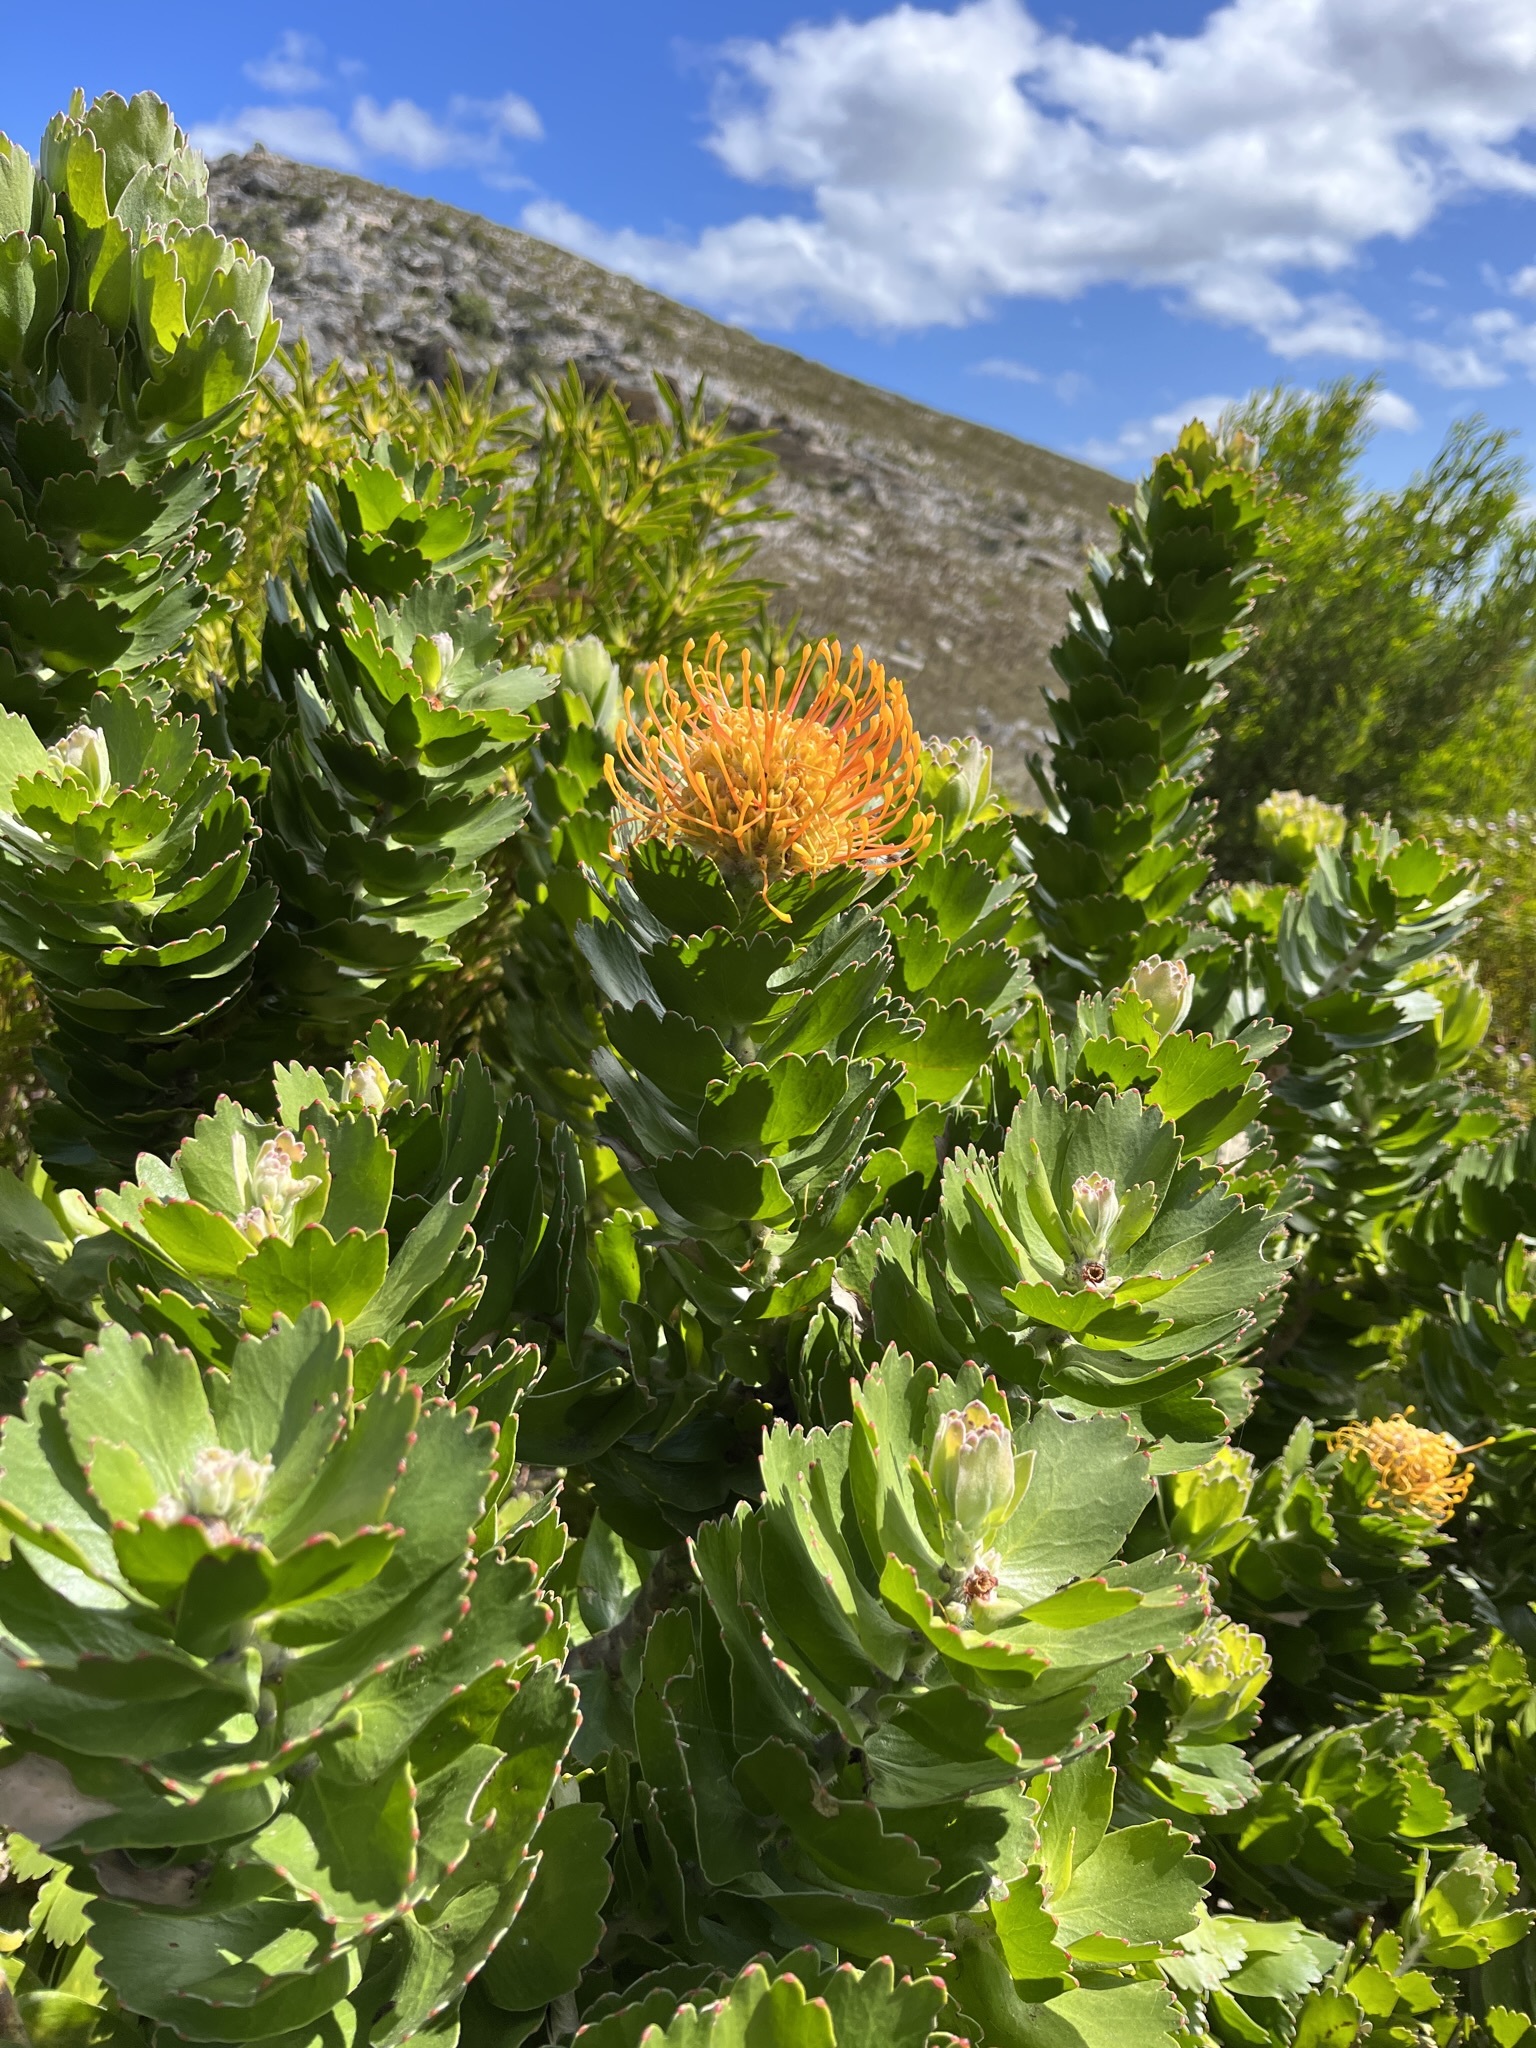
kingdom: Plantae
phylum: Tracheophyta
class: Magnoliopsida
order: Proteales
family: Proteaceae
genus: Leucospermum
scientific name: Leucospermum patersonii
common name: False tree pincushion
